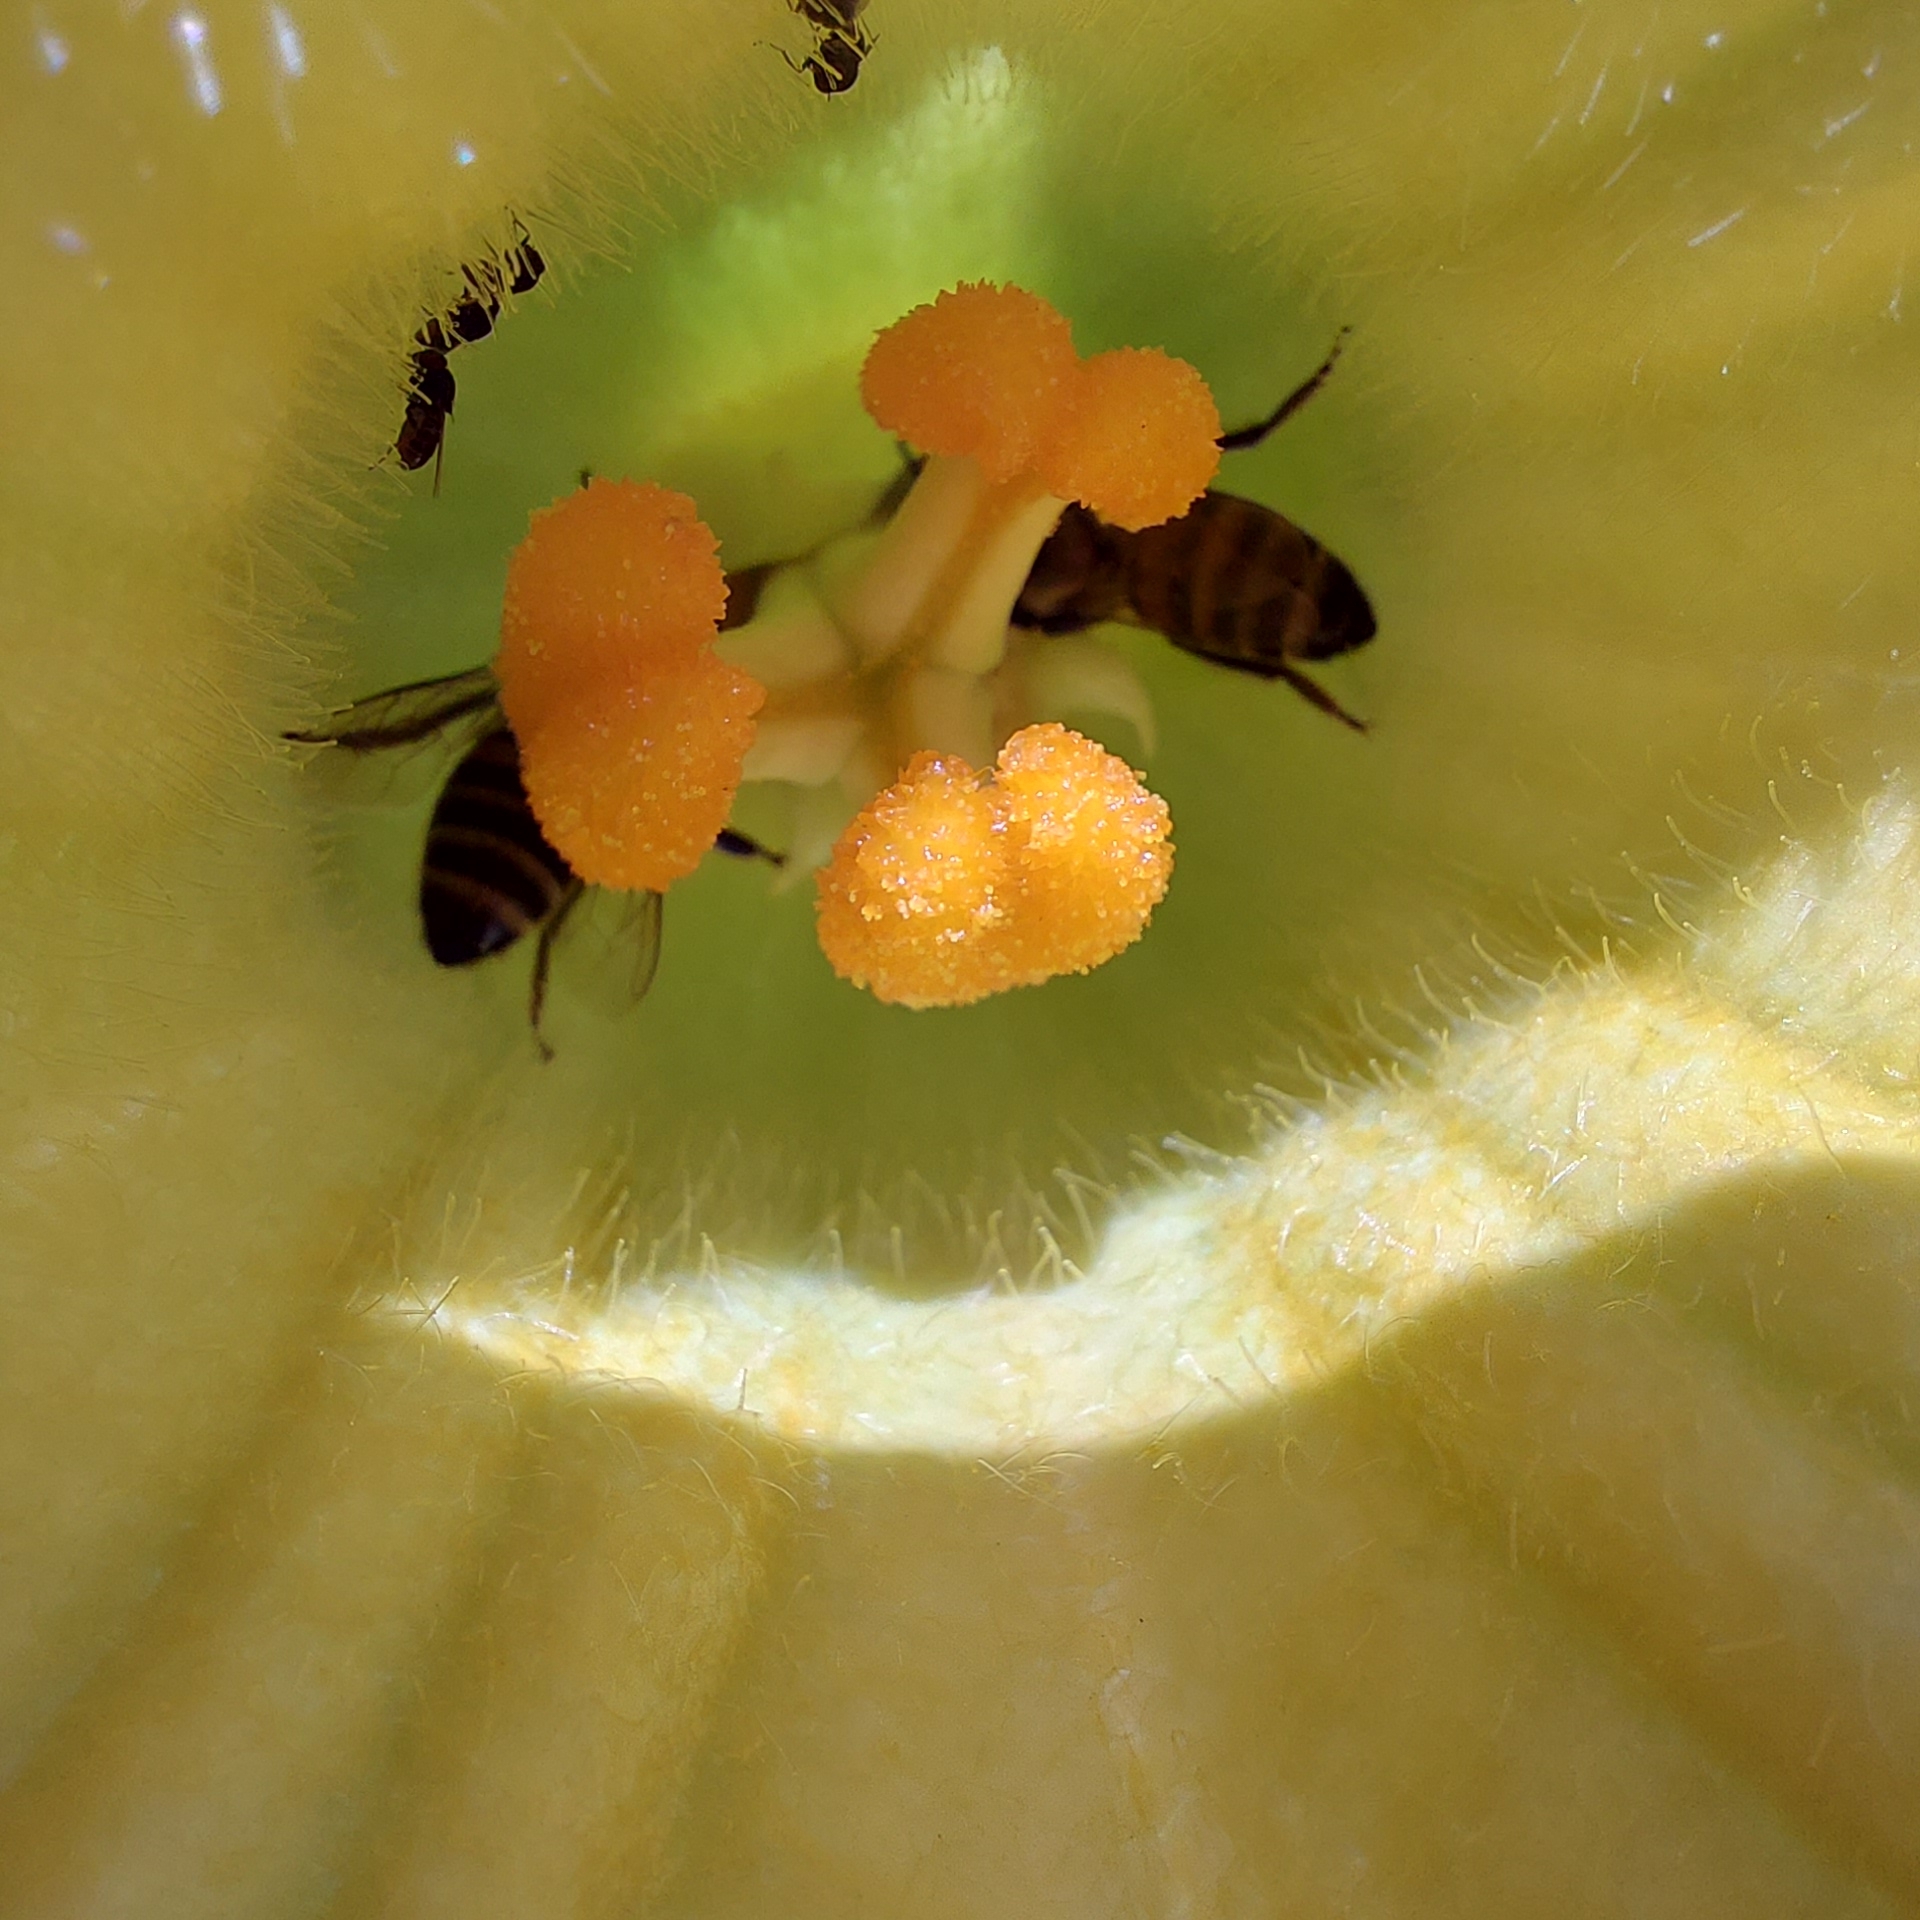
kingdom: Animalia
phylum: Arthropoda
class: Insecta
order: Hymenoptera
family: Apidae
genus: Apis
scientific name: Apis mellifera
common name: Honey bee
